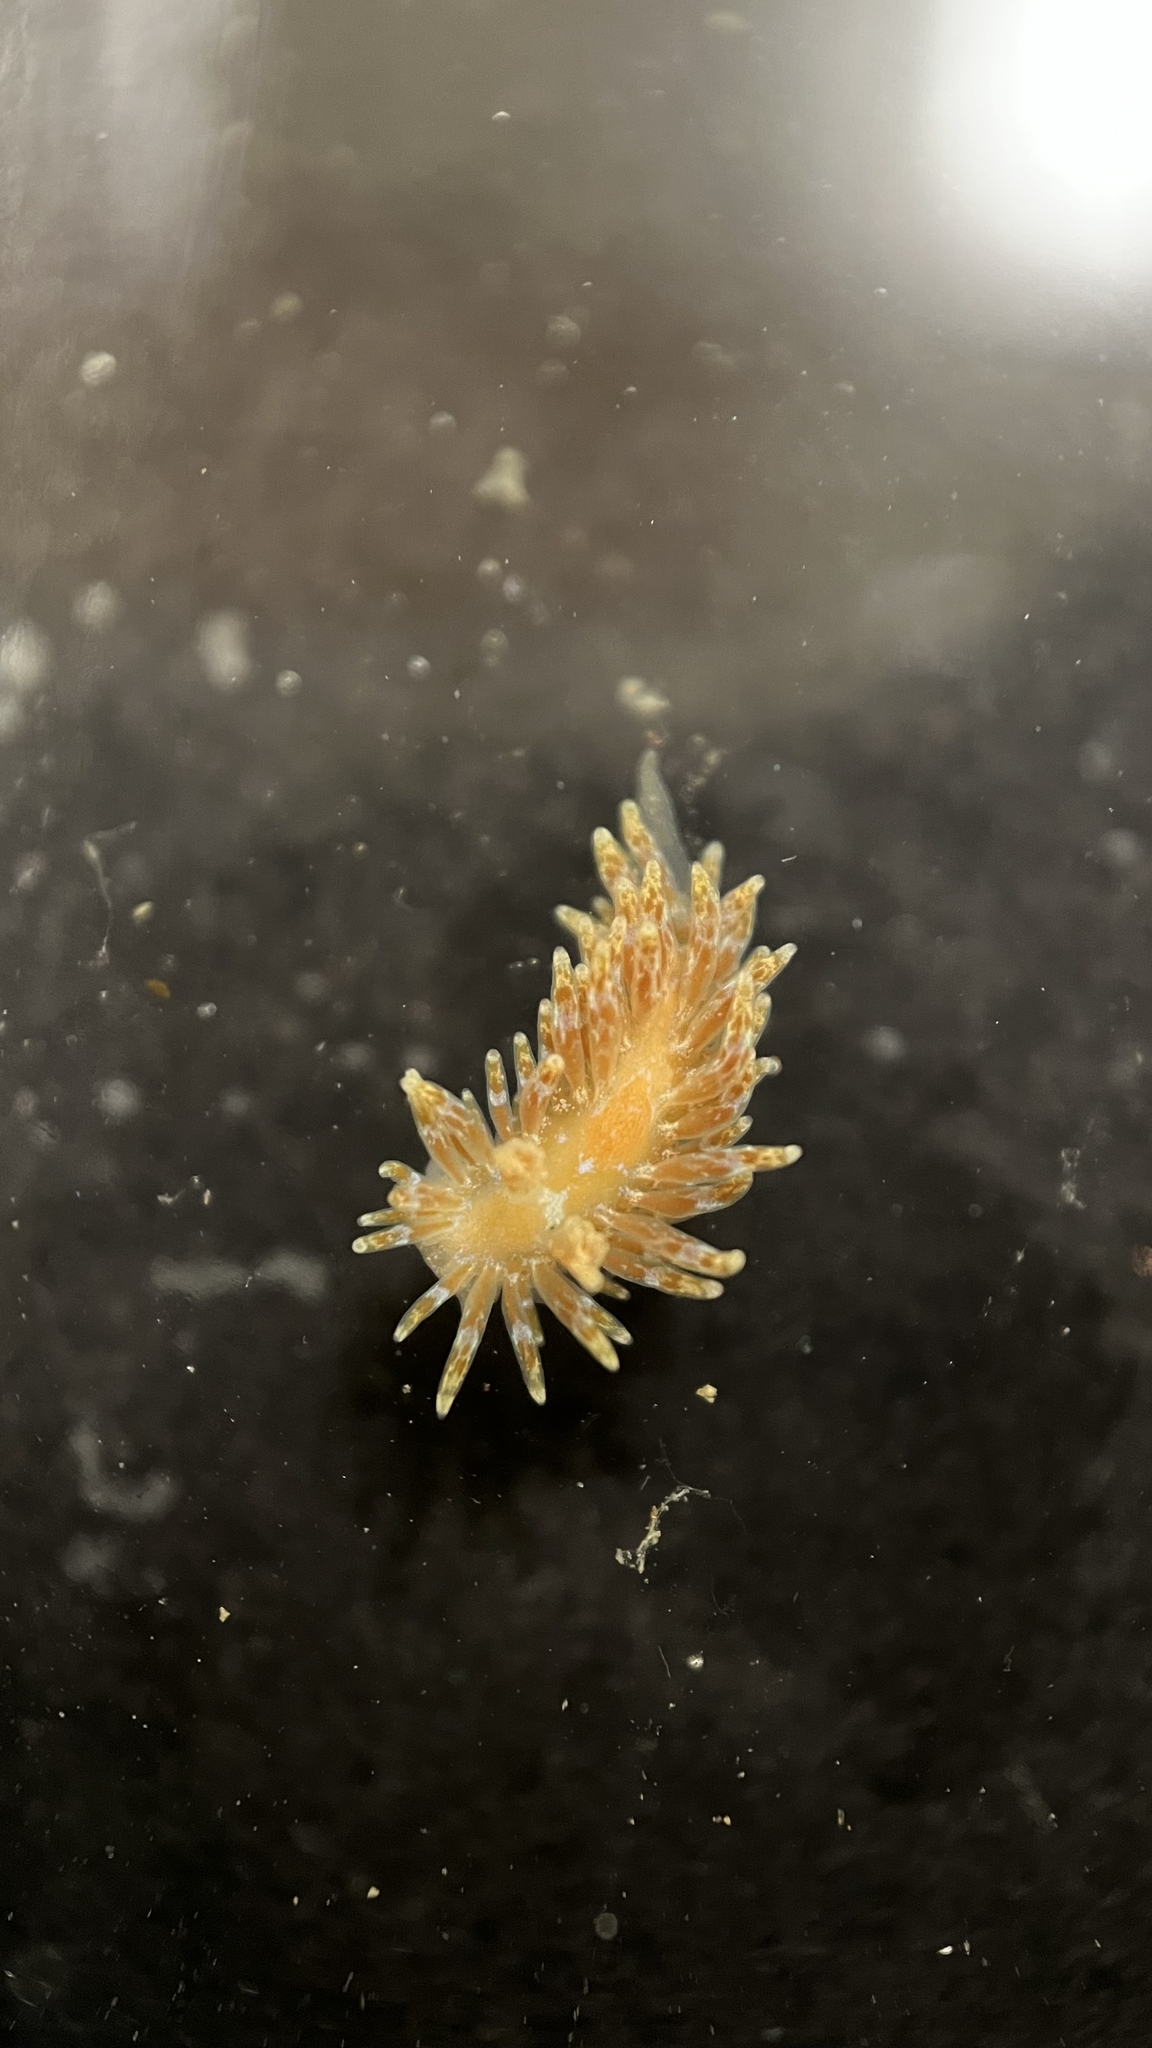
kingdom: Animalia
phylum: Mollusca
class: Gastropoda
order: Nudibranchia
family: Proctonotidae
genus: Caldukia
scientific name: Caldukia affinis
